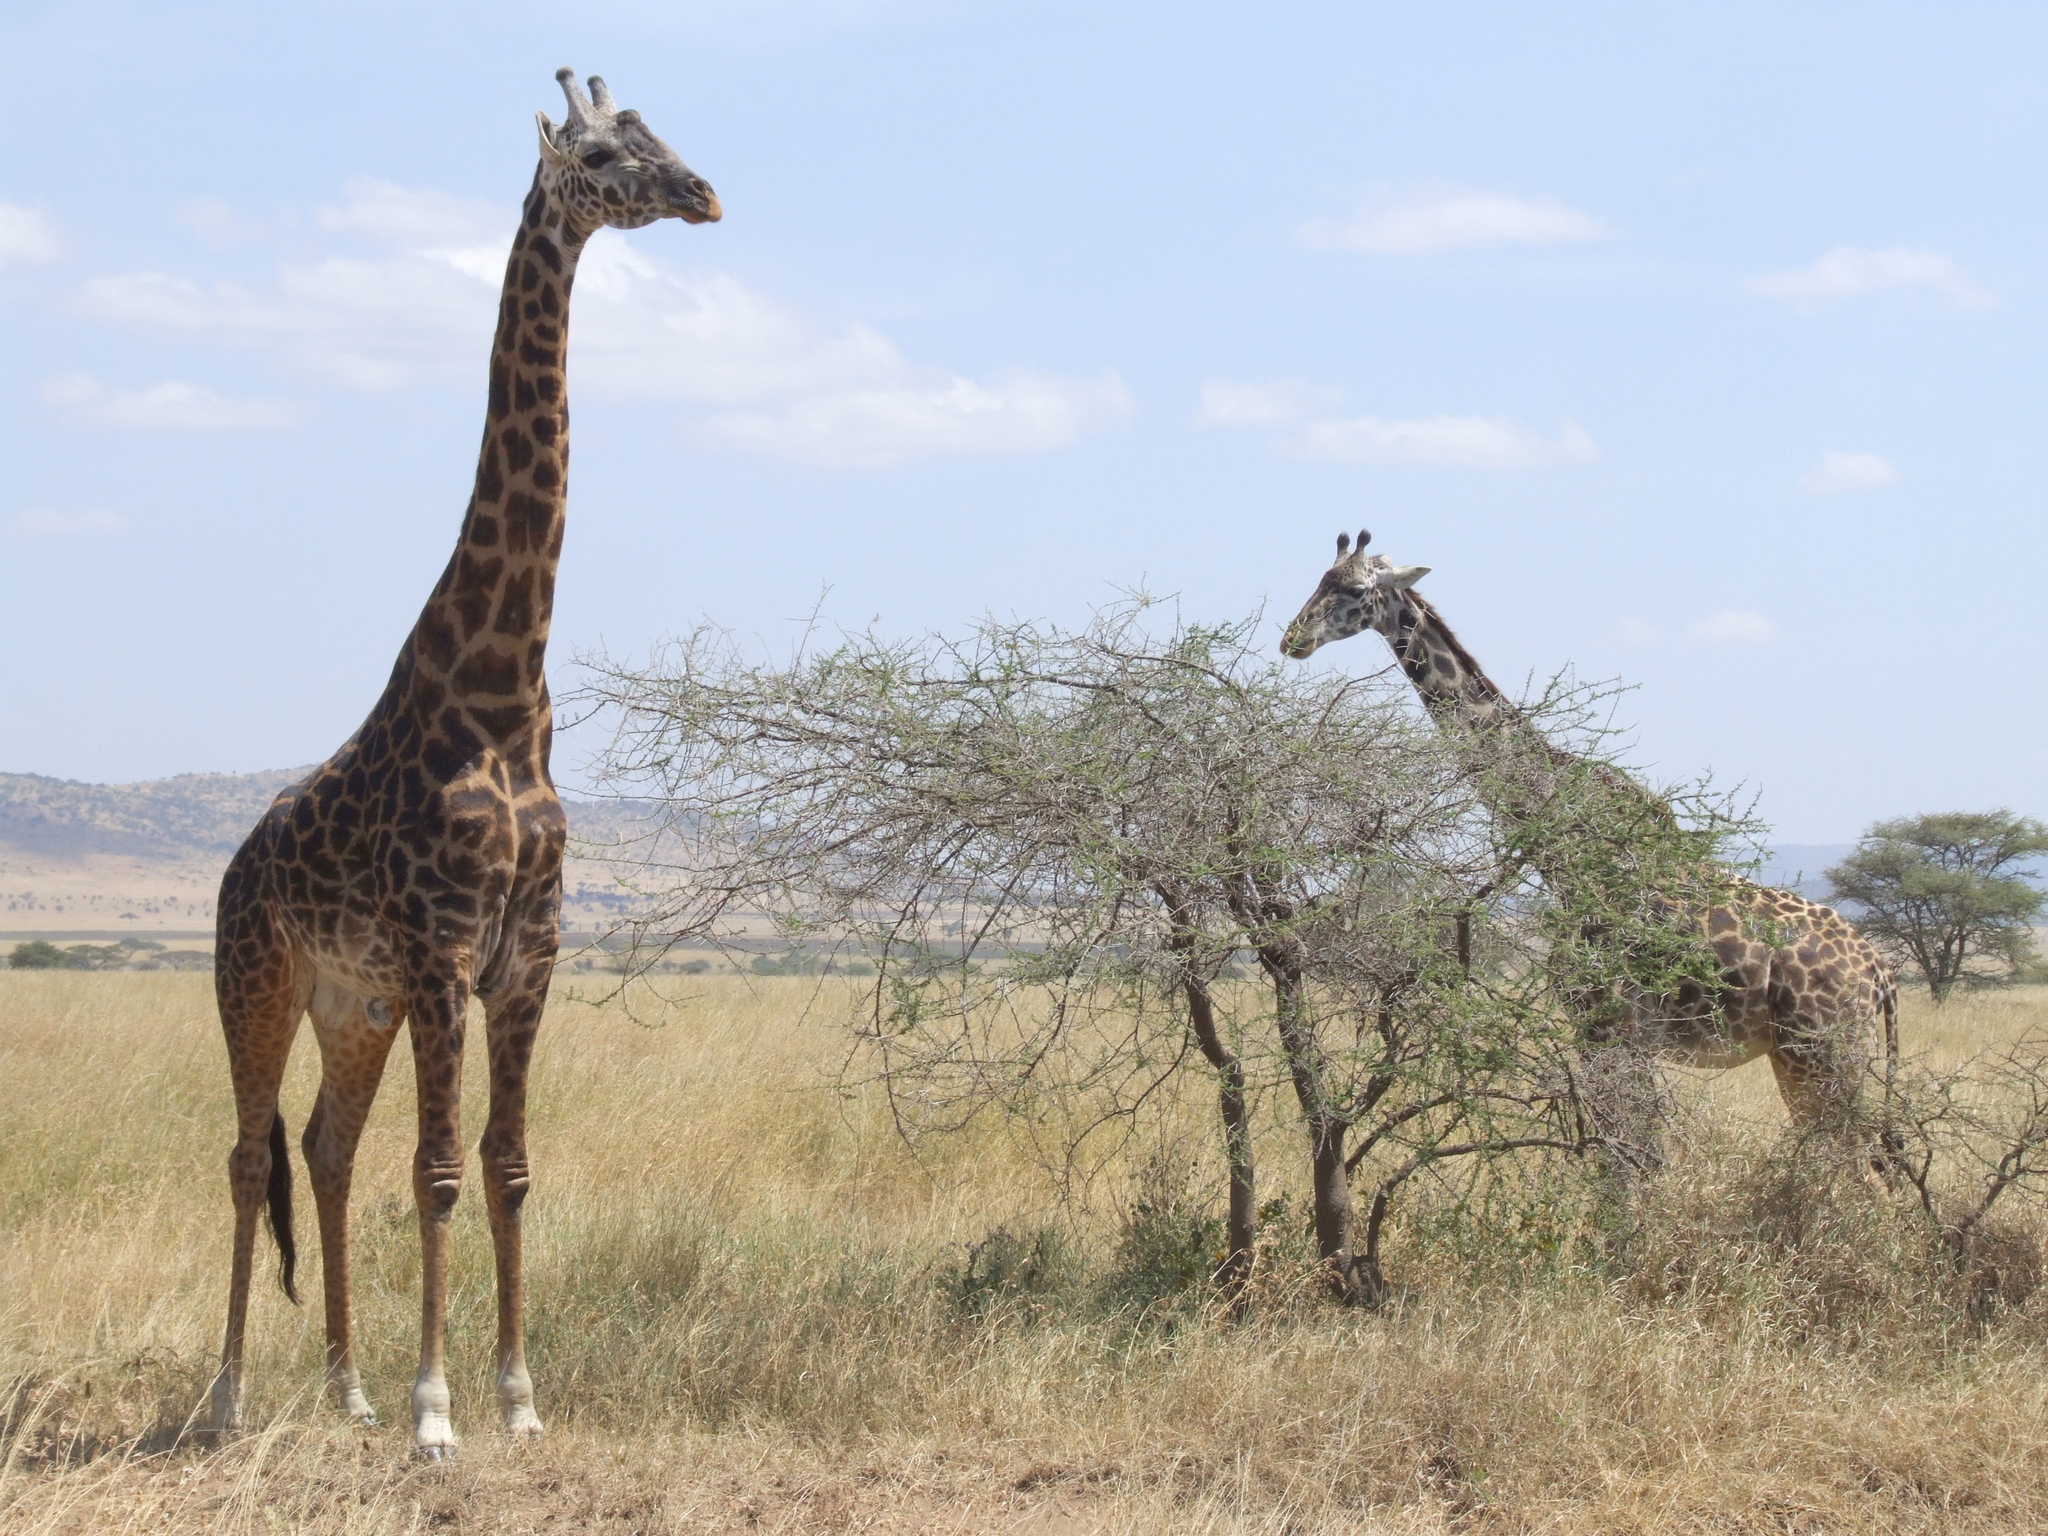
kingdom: Animalia
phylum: Chordata
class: Mammalia
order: Artiodactyla
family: Giraffidae
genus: Giraffa
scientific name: Giraffa tippelskirchi
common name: Masai giraffe
